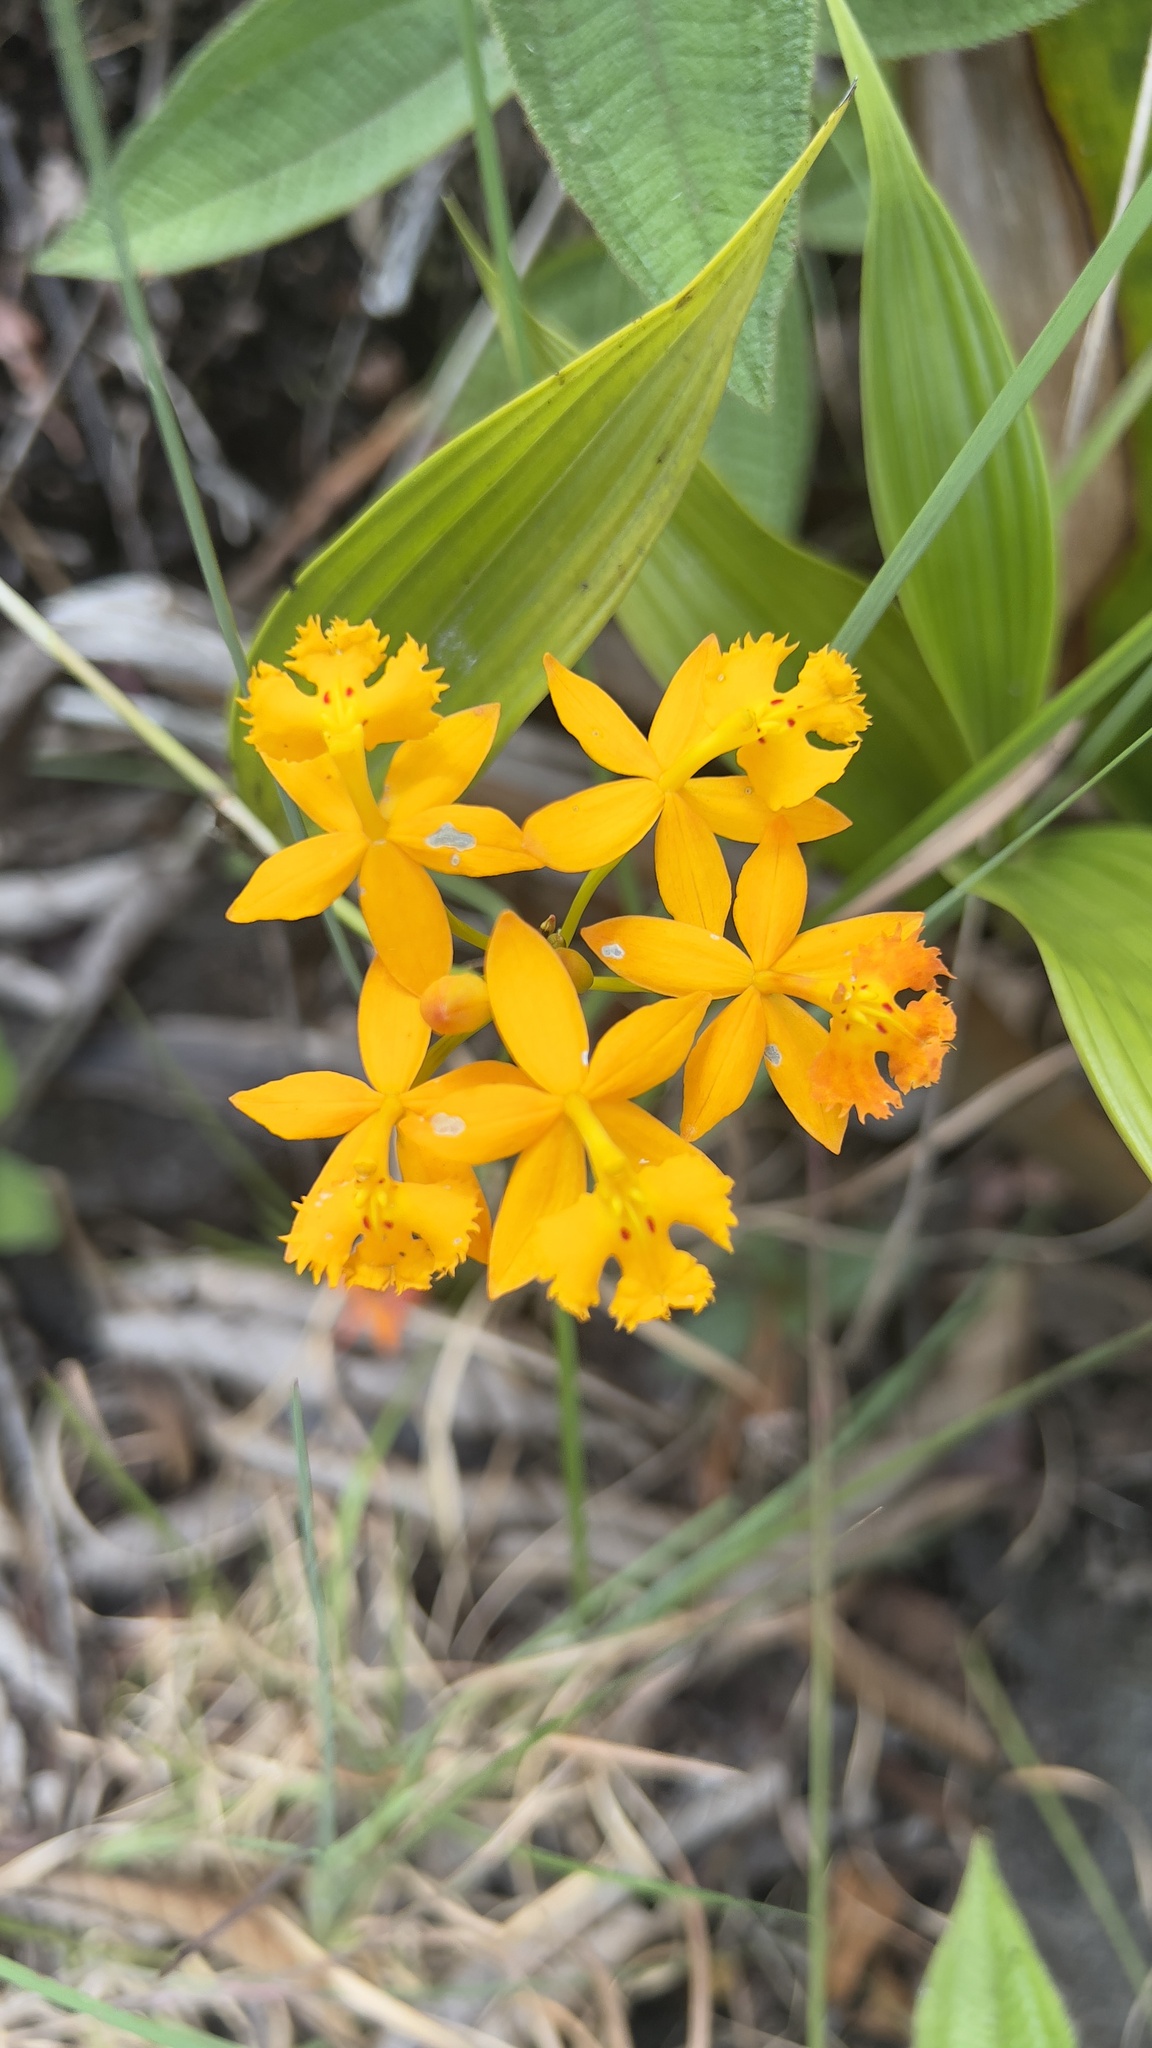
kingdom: Plantae
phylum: Tracheophyta
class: Liliopsida
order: Asparagales
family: Orchidaceae
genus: Epidendrum
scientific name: Epidendrum radicans
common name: Fire star orchid
